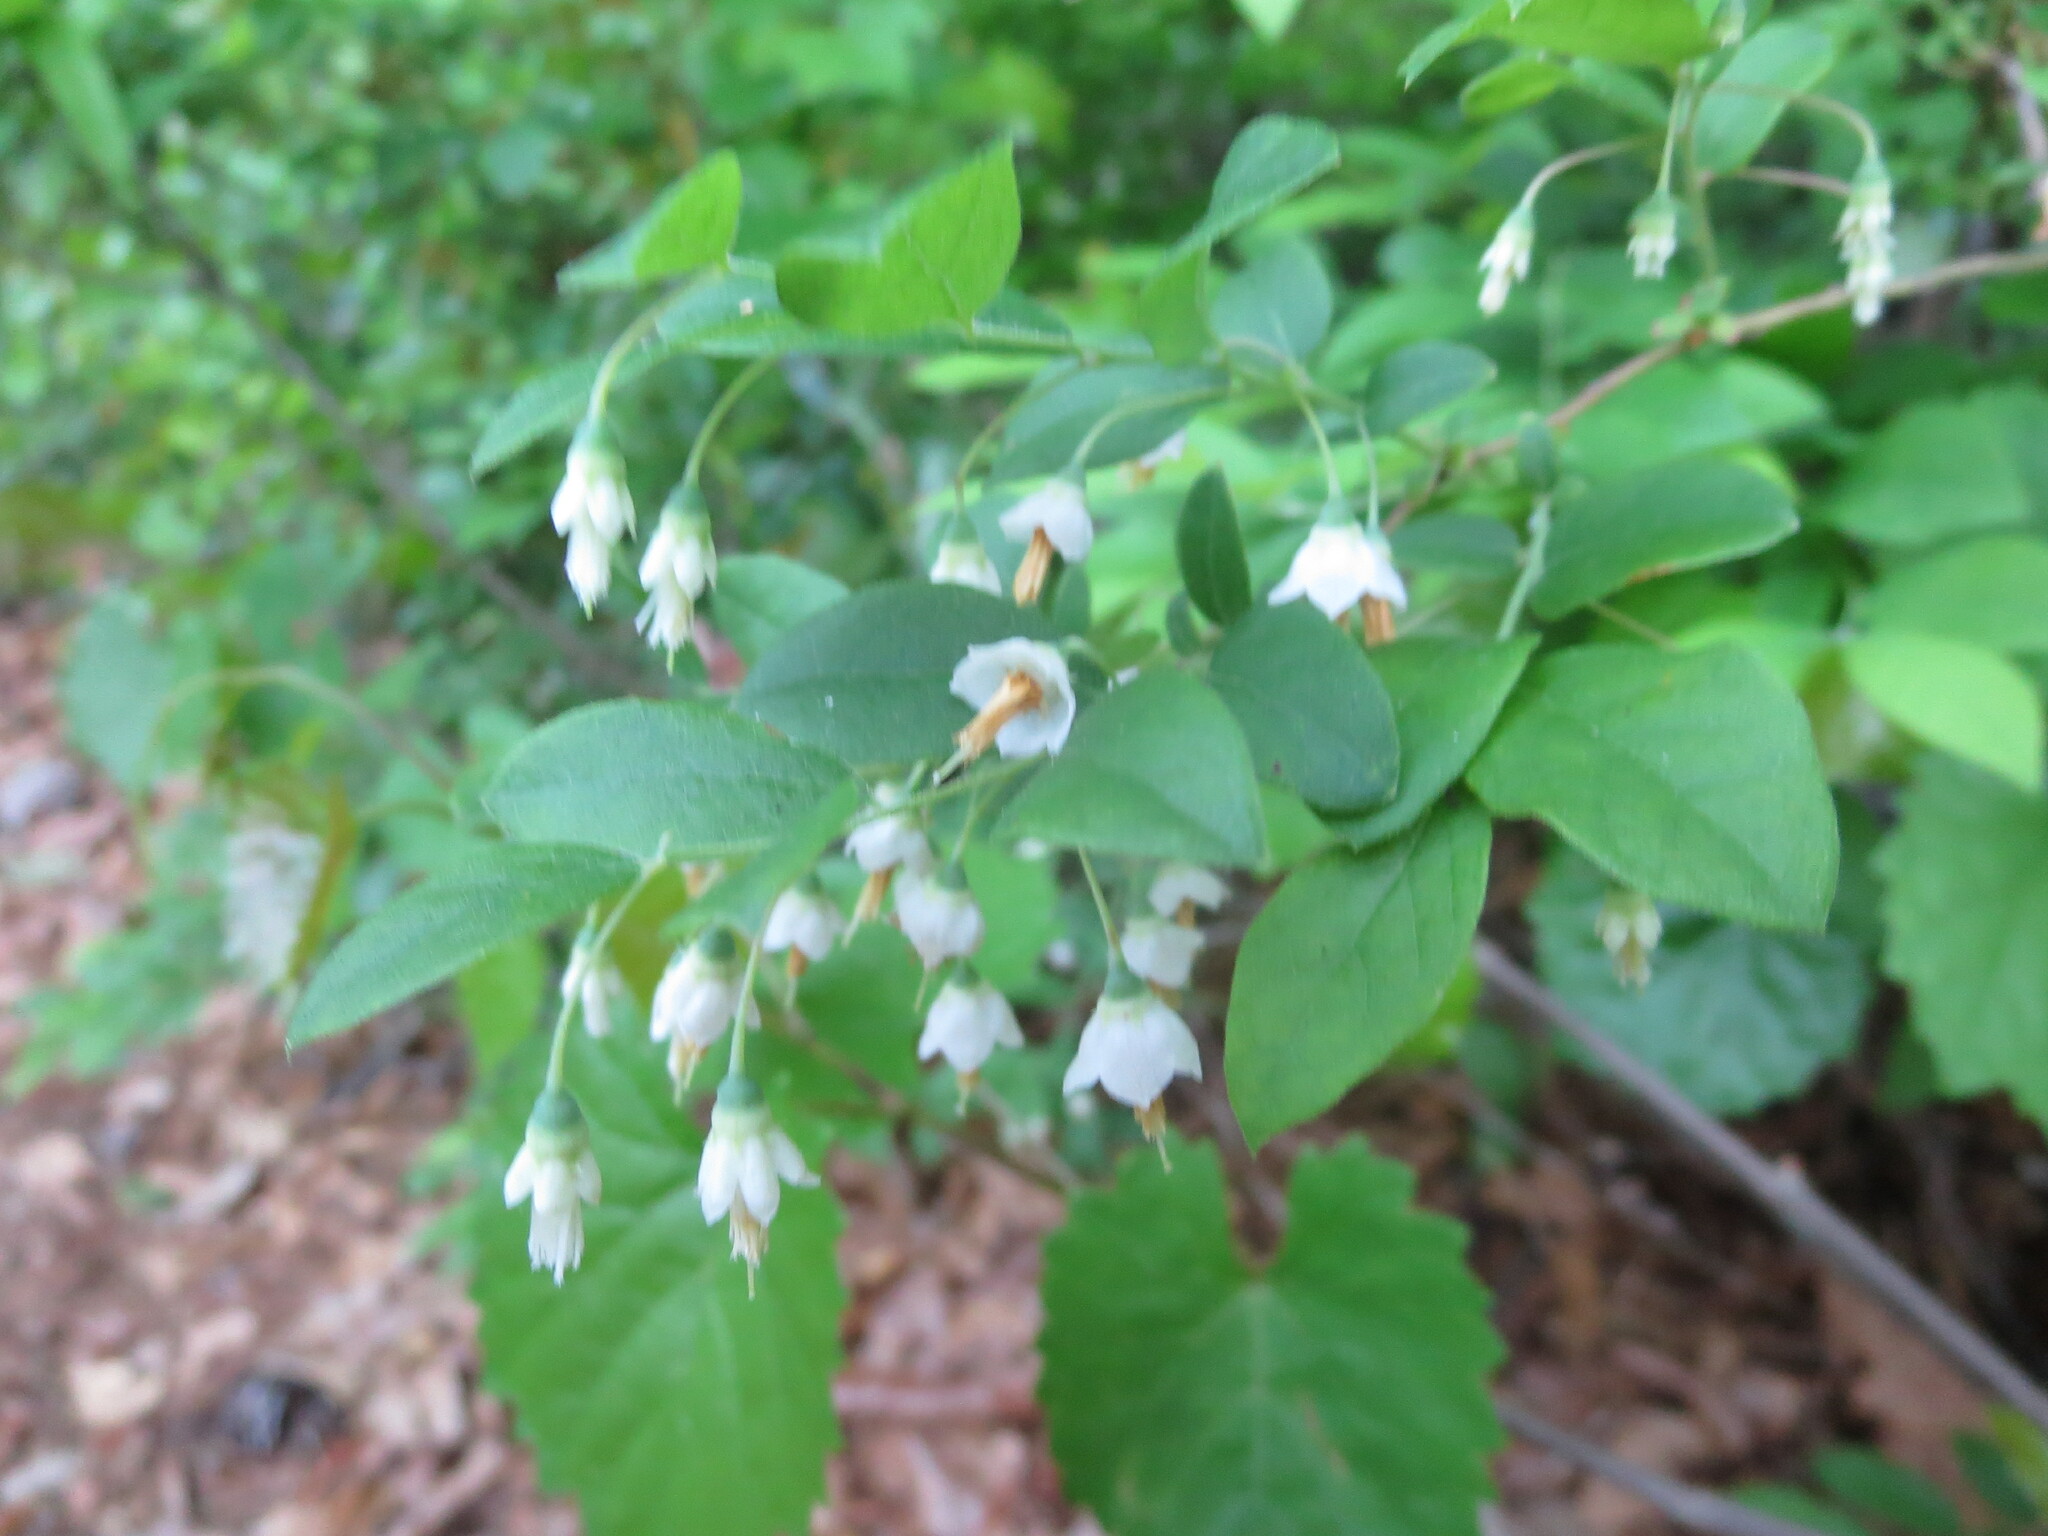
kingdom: Plantae
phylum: Tracheophyta
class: Magnoliopsida
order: Ericales
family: Ericaceae
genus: Vaccinium
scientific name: Vaccinium stamineum
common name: Deerberry
